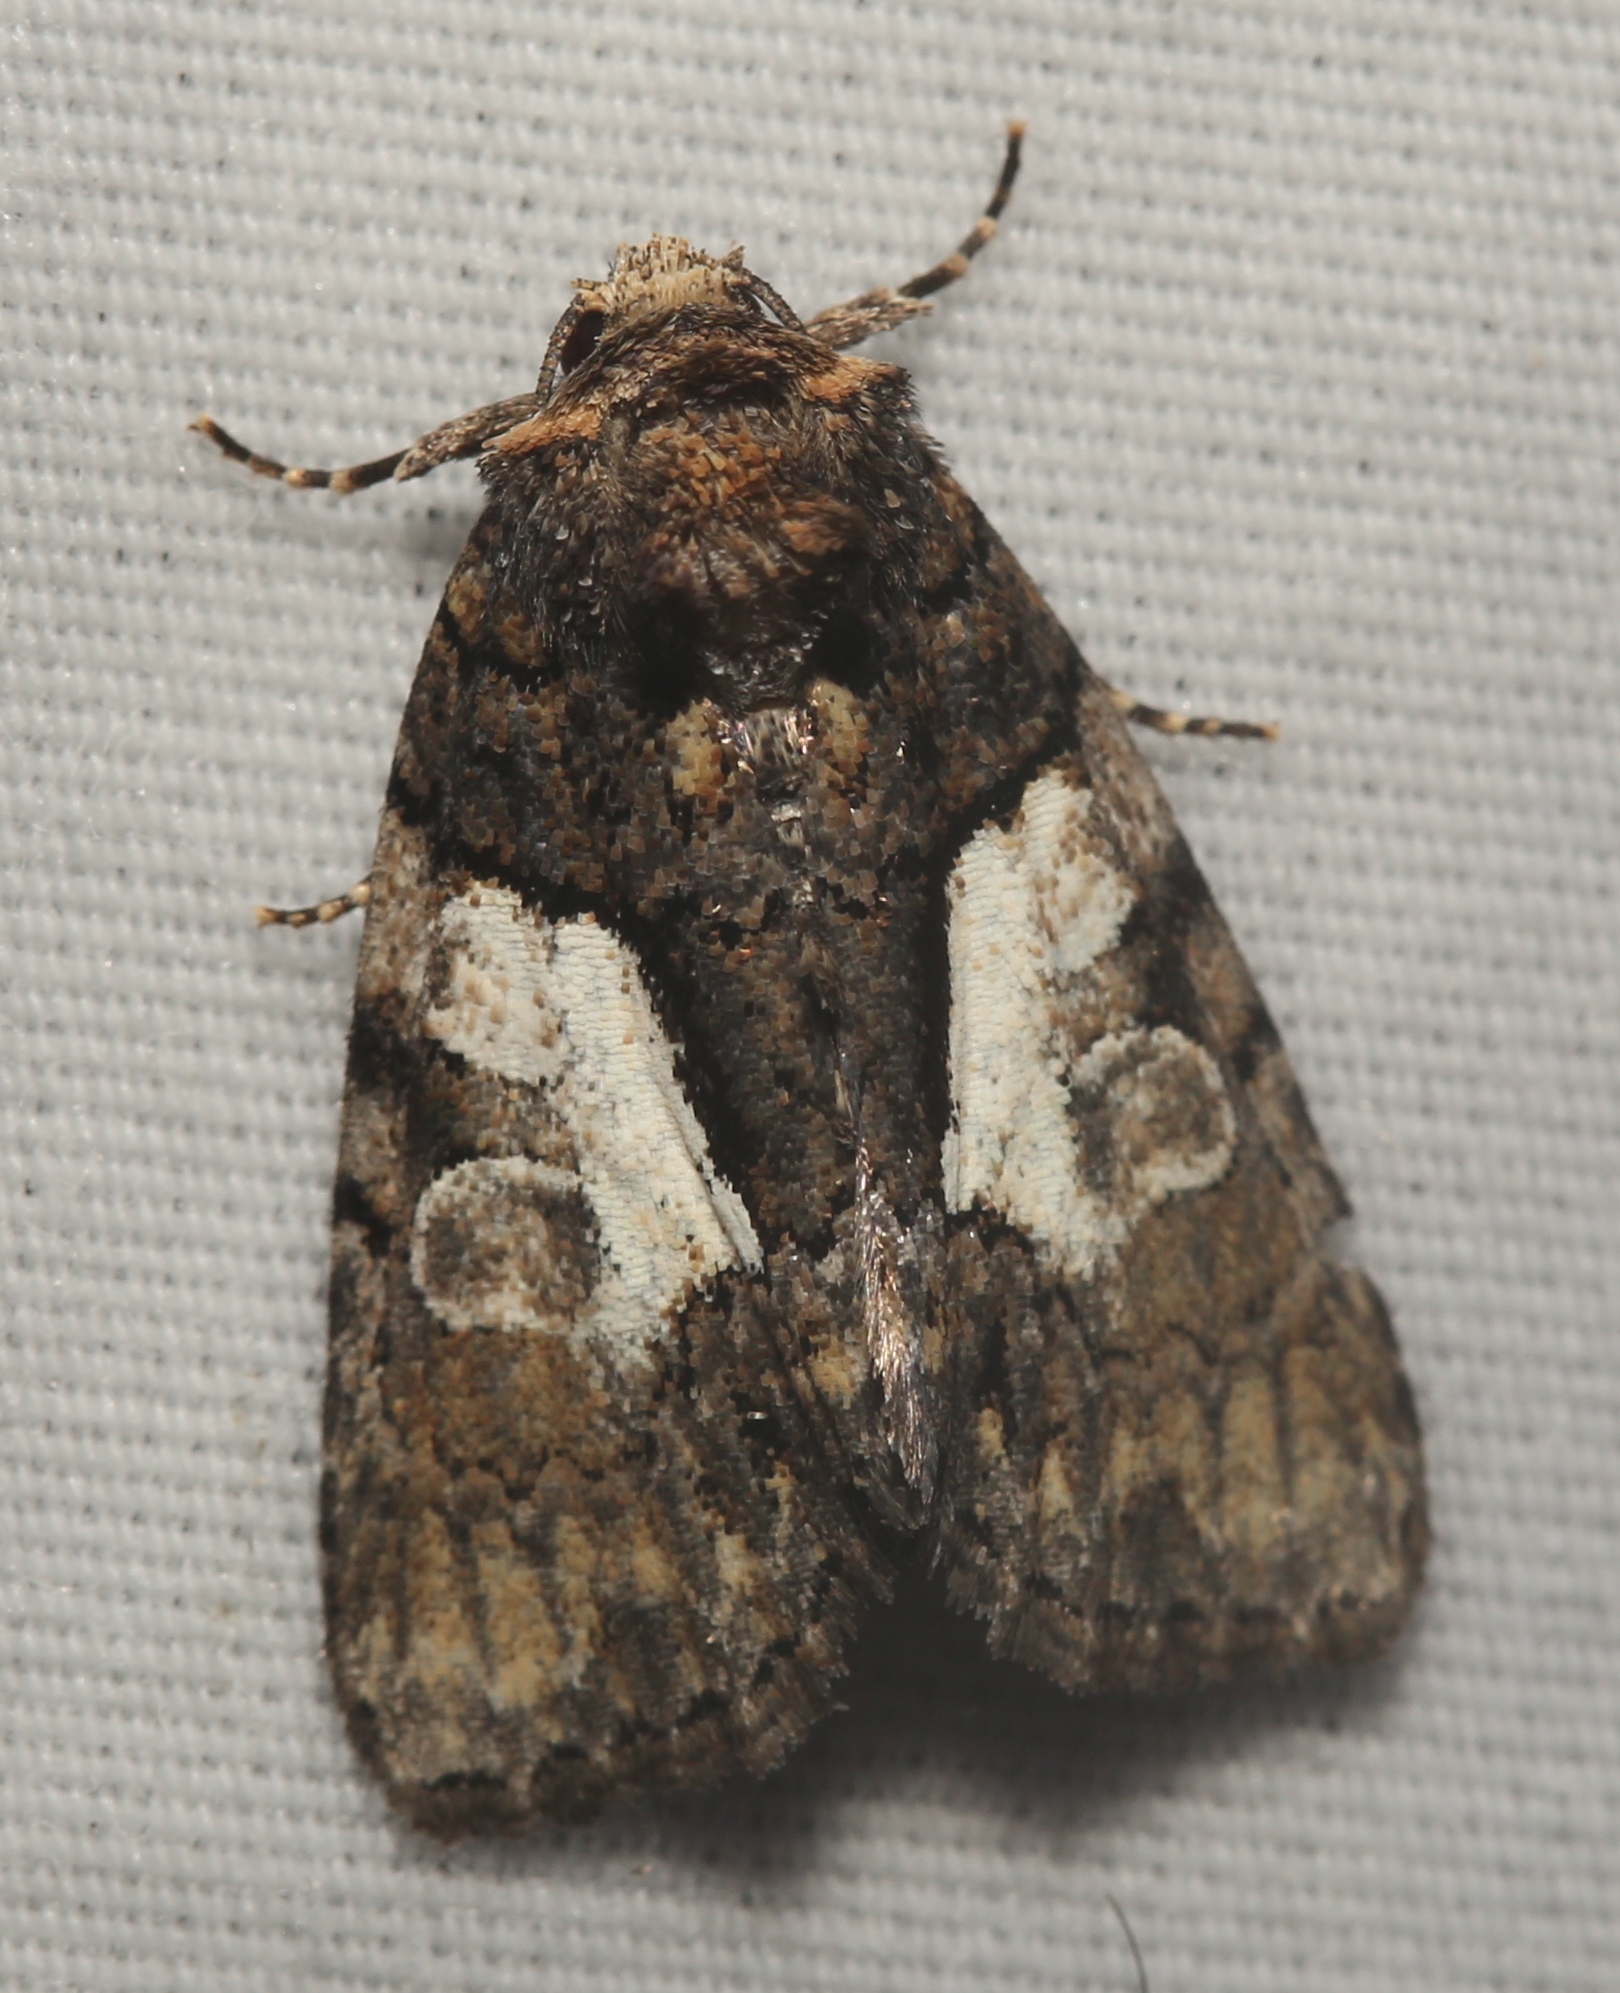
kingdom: Animalia
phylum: Arthropoda
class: Insecta
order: Lepidoptera
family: Noctuidae
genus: Chytonix
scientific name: Chytonix palliatricula
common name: Cloaked marvel
